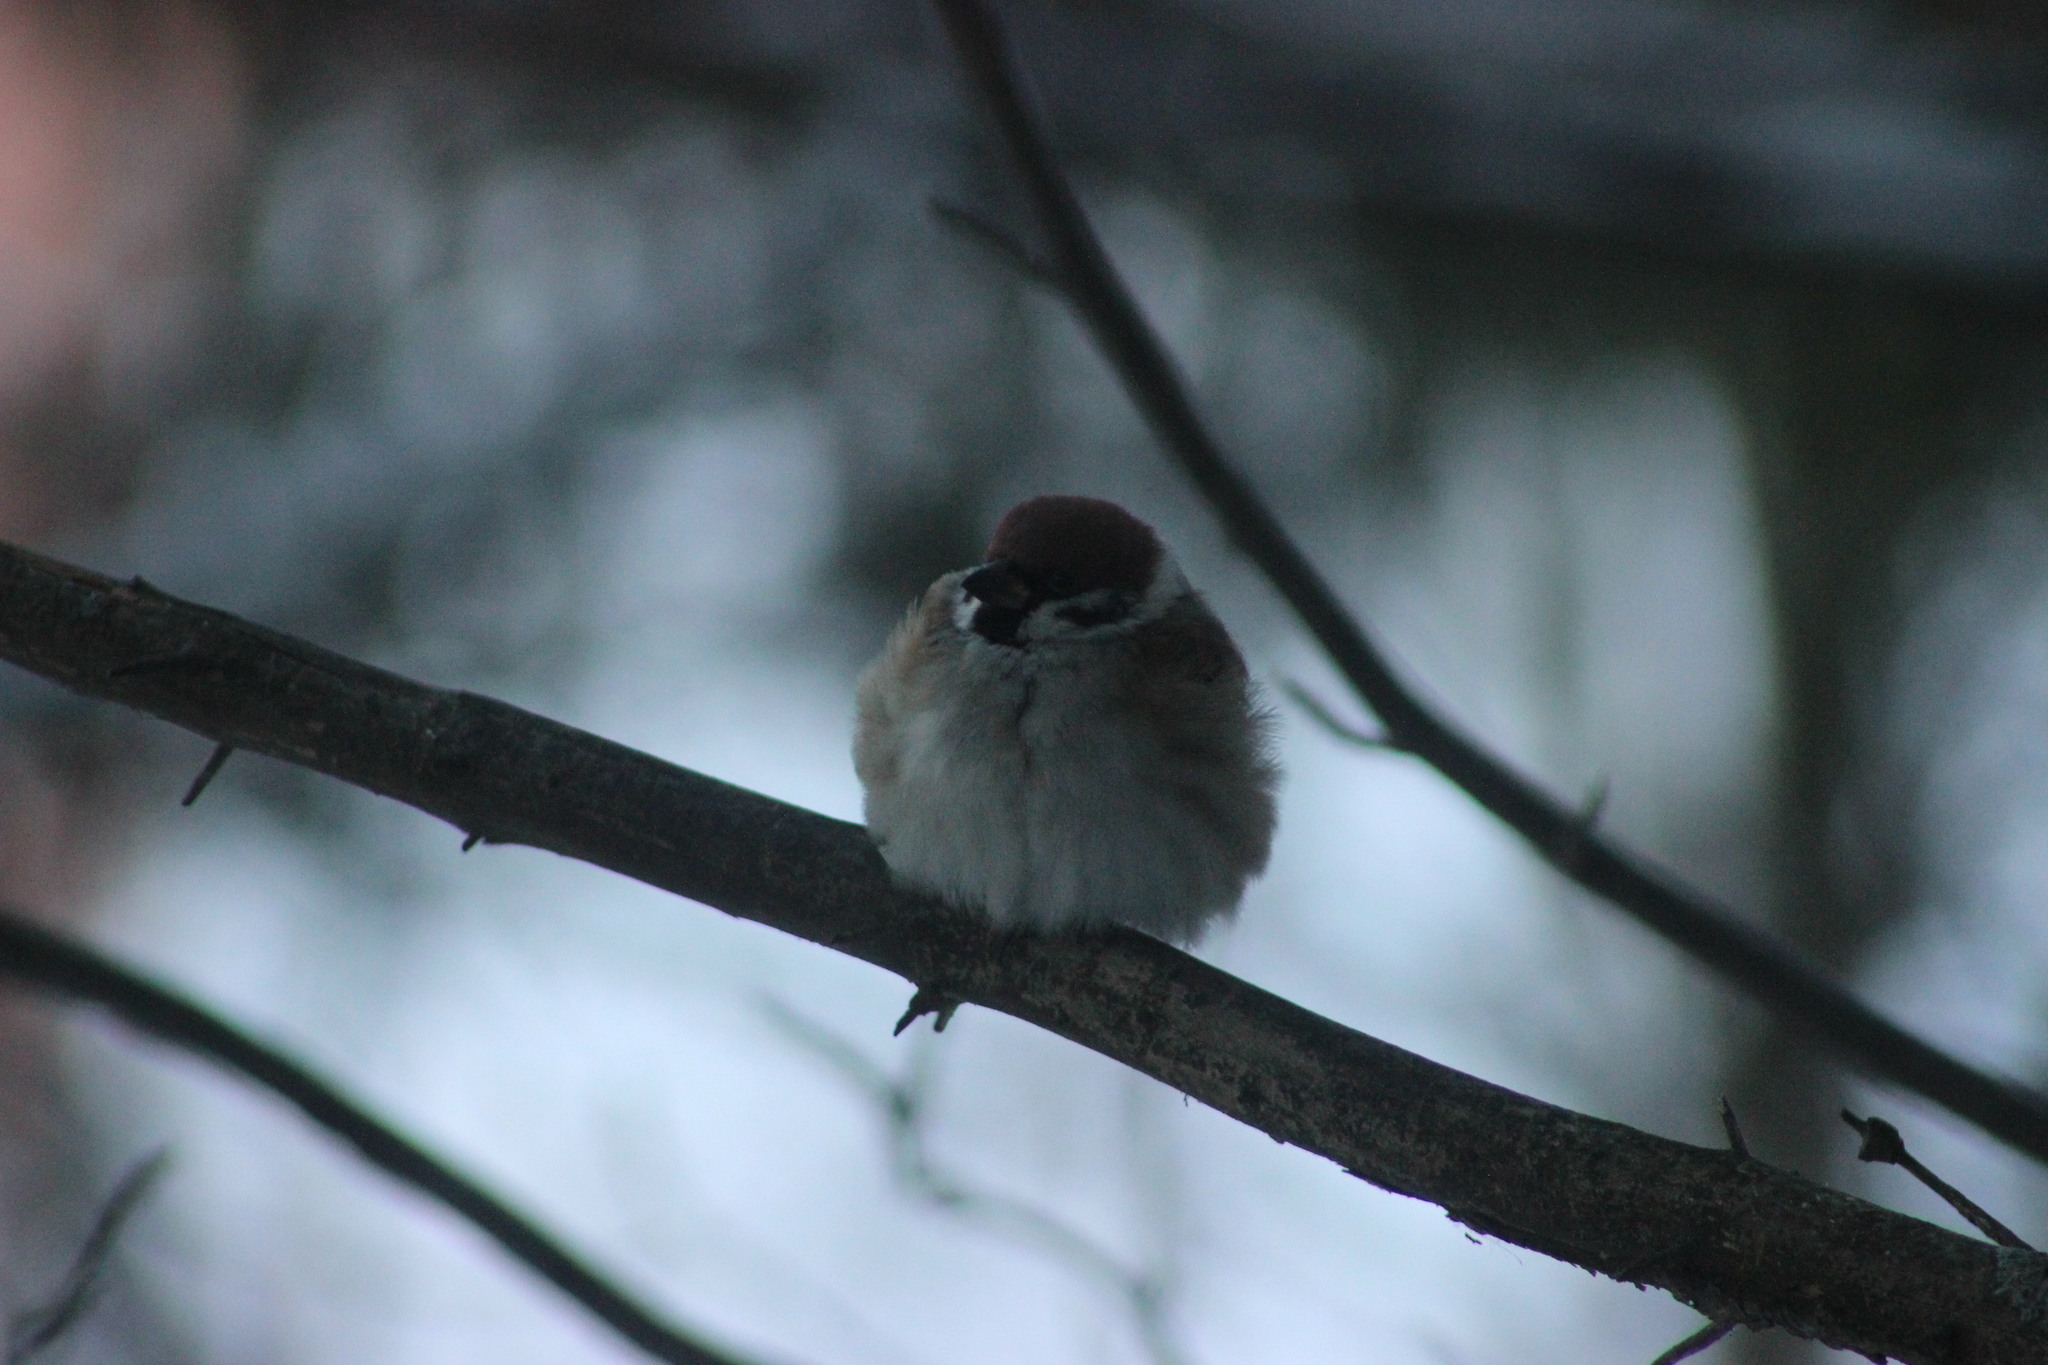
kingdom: Animalia
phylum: Chordata
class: Aves
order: Passeriformes
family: Passeridae
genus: Passer
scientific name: Passer montanus
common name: Eurasian tree sparrow
